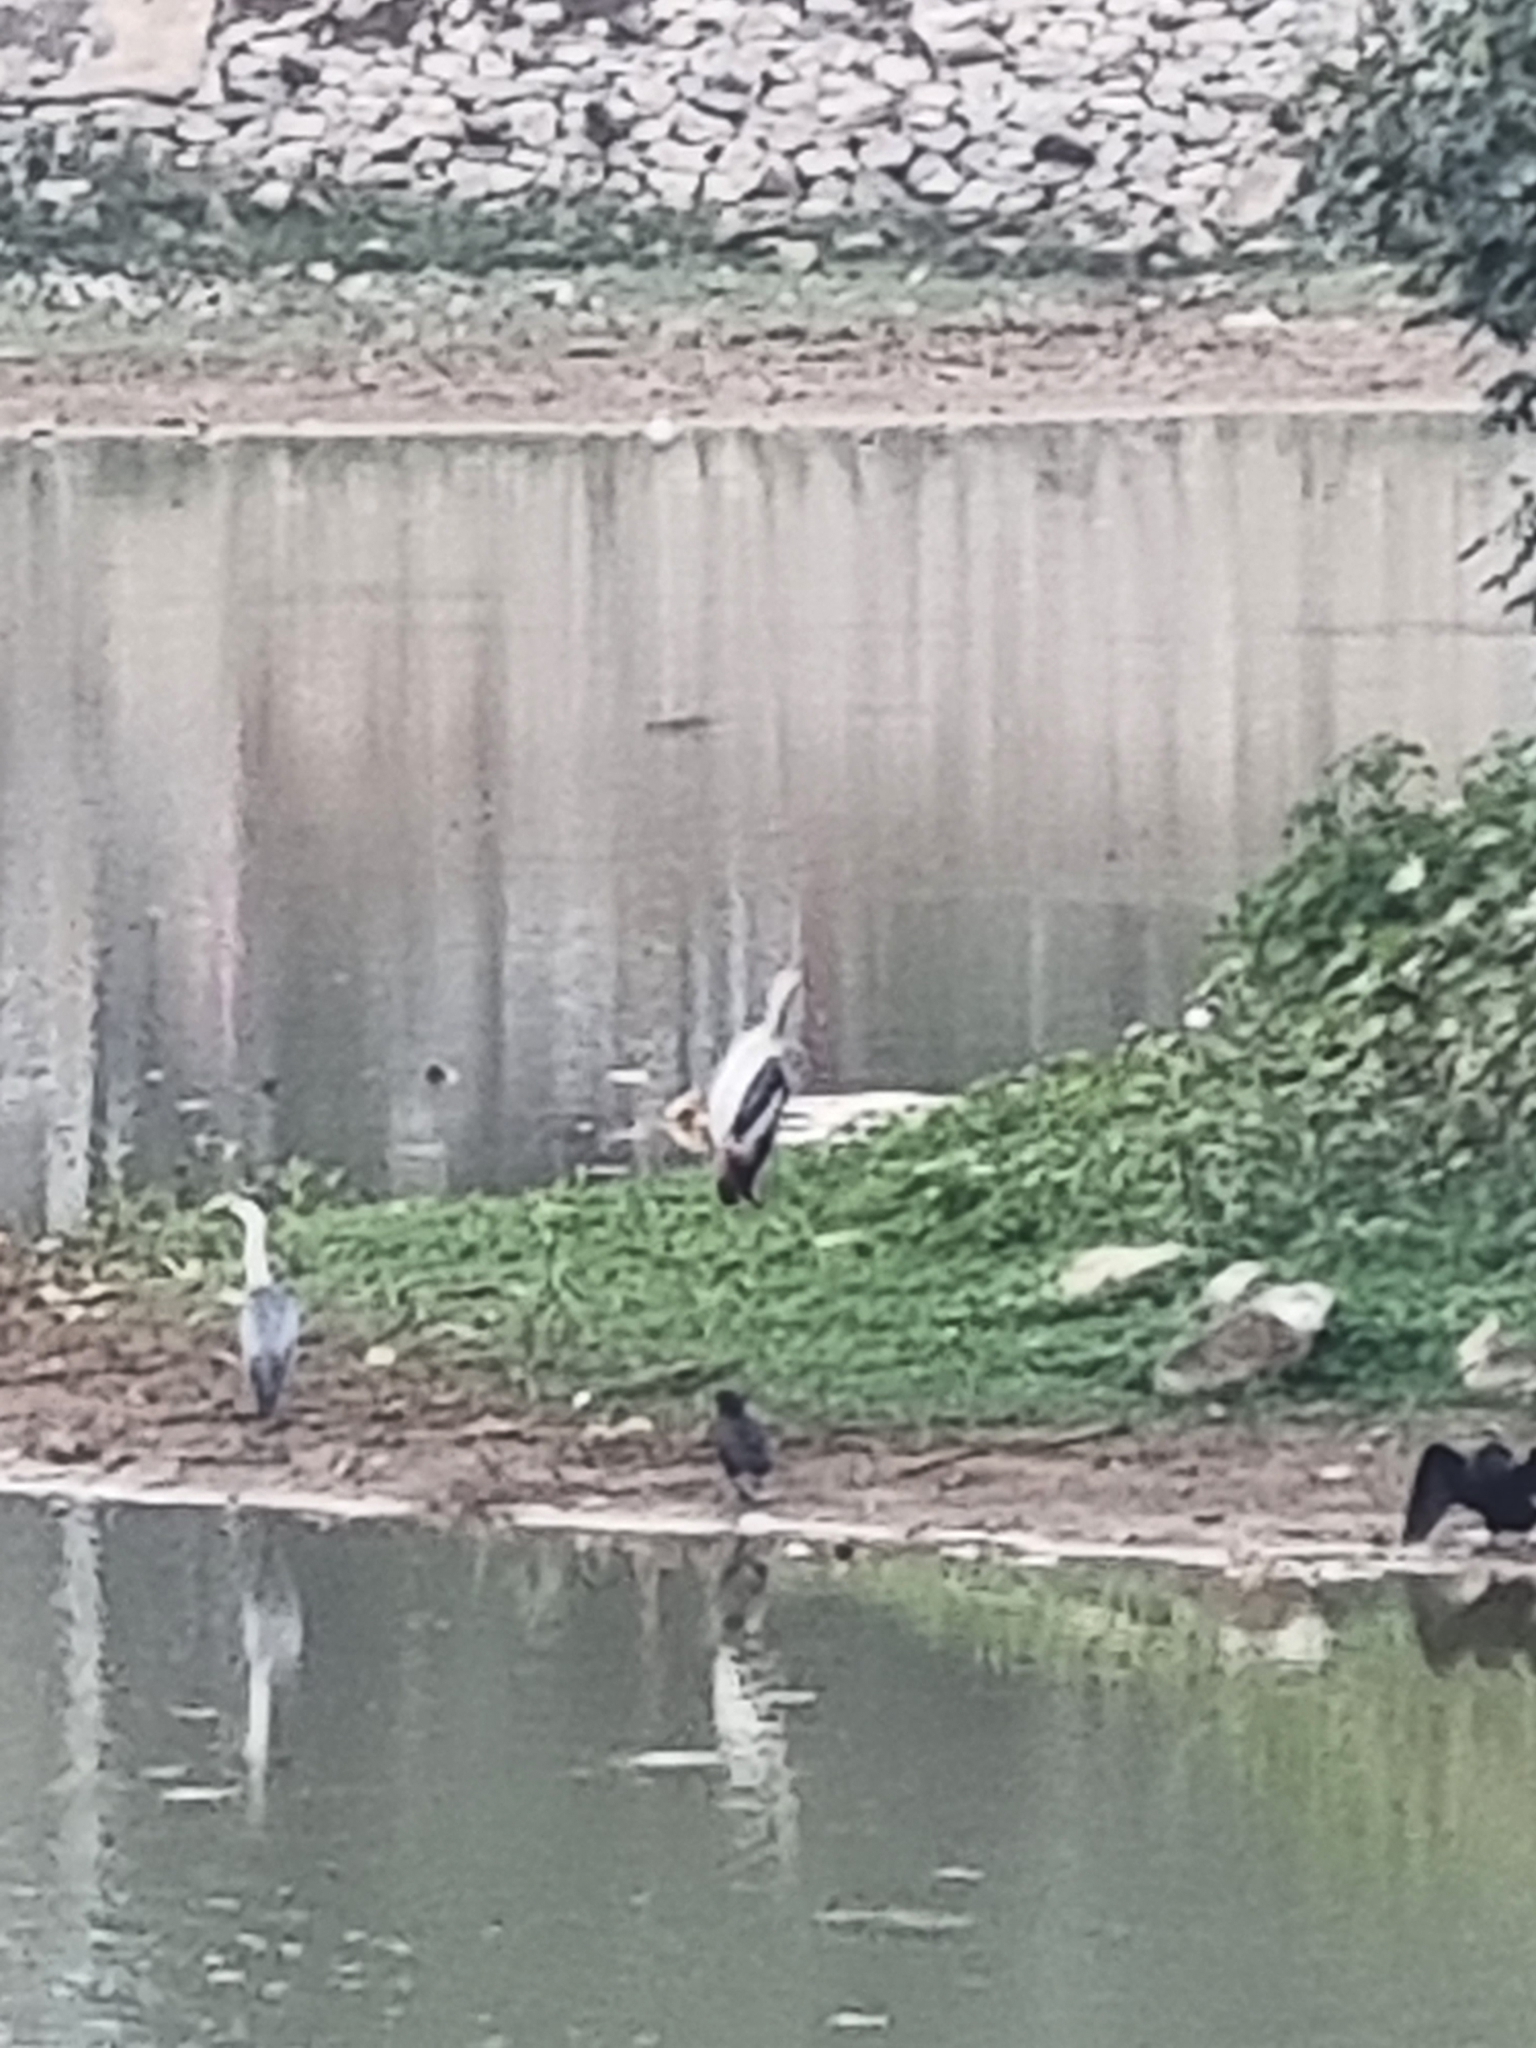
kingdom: Animalia
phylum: Chordata
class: Aves
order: Ciconiiformes
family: Ciconiidae
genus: Mycteria
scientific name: Mycteria leucocephala
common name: Painted stork
